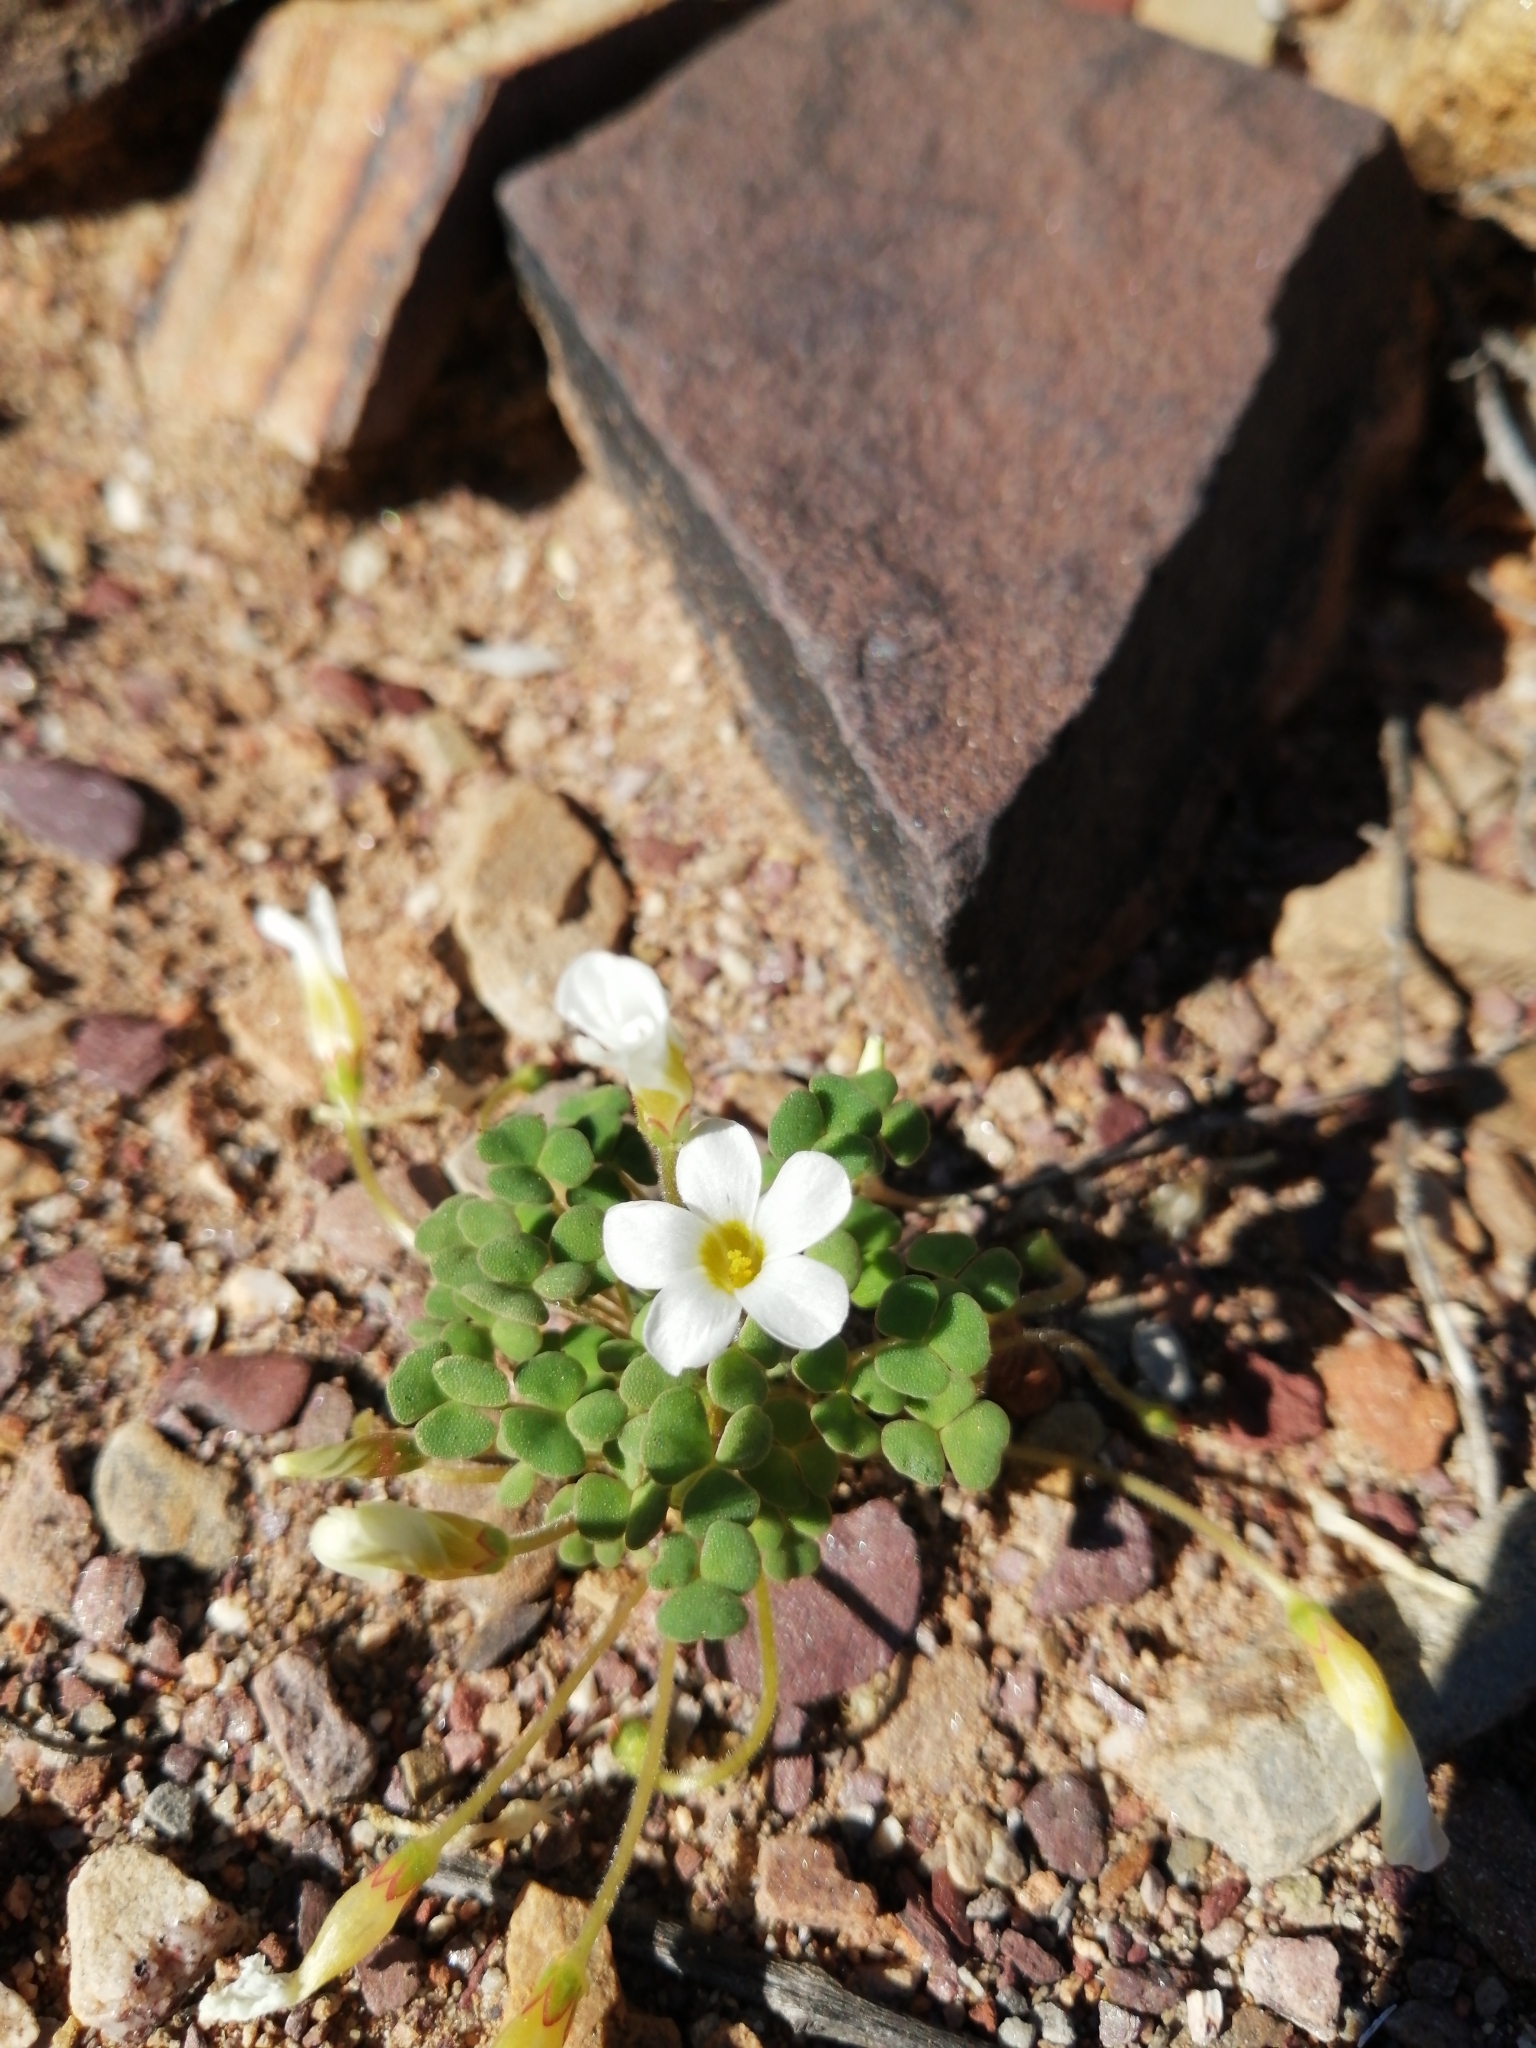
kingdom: Plantae
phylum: Tracheophyta
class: Magnoliopsida
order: Oxalidales
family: Oxalidaceae
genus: Oxalis
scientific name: Oxalis punctata
